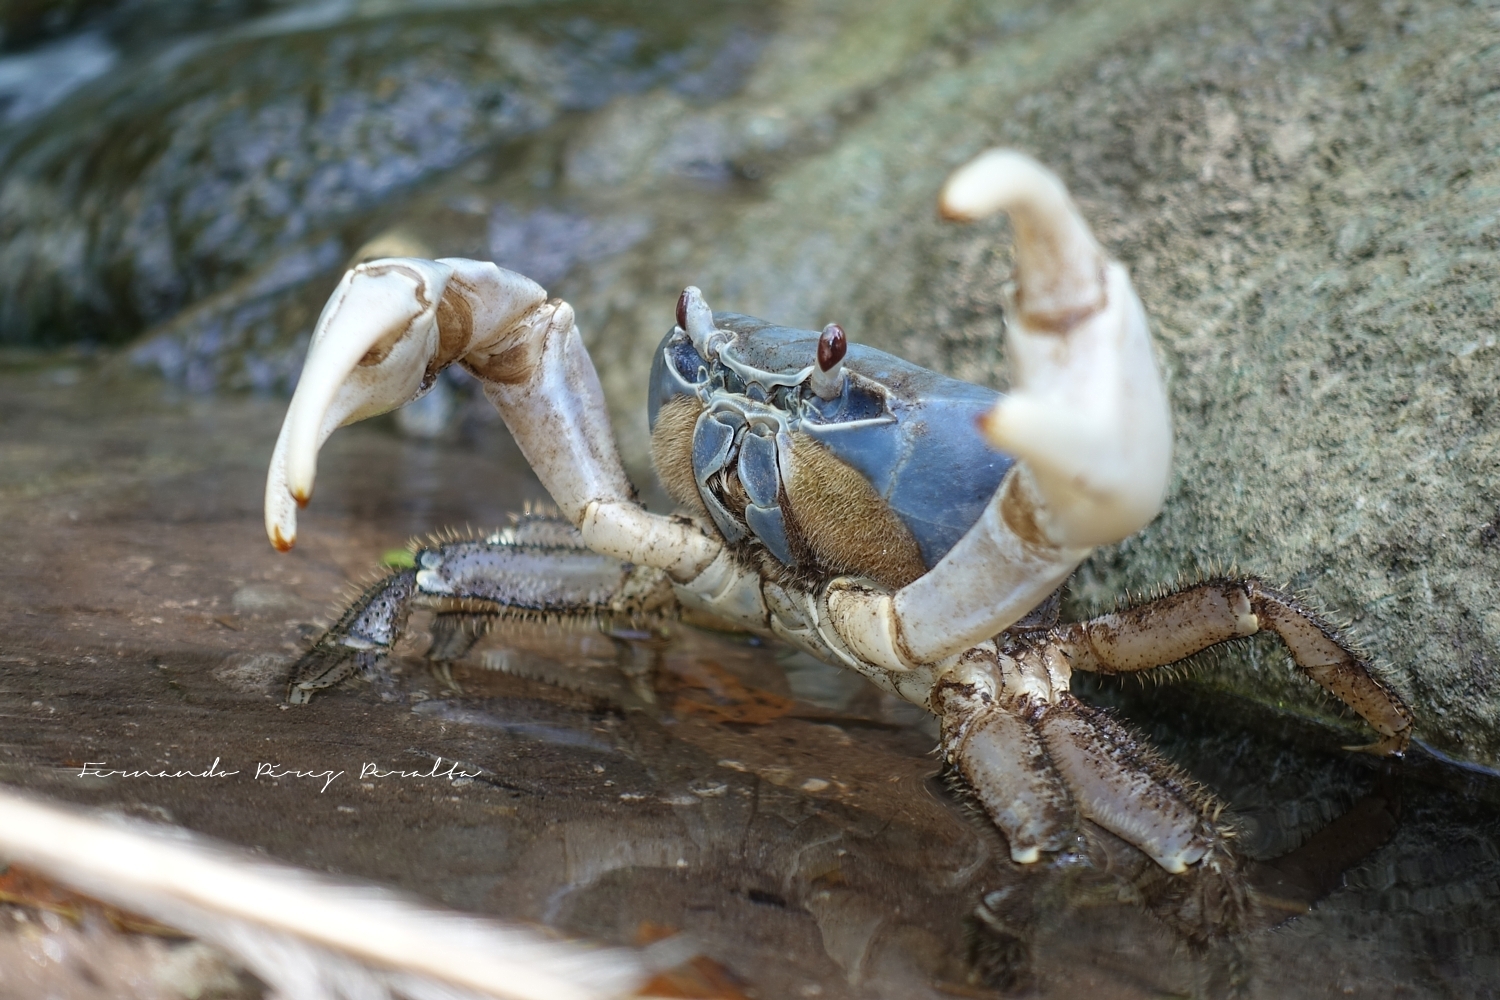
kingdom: Animalia
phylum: Arthropoda
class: Malacostraca
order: Decapoda
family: Gecarcinidae
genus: Tuerkayana
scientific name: Tuerkayana celeste
